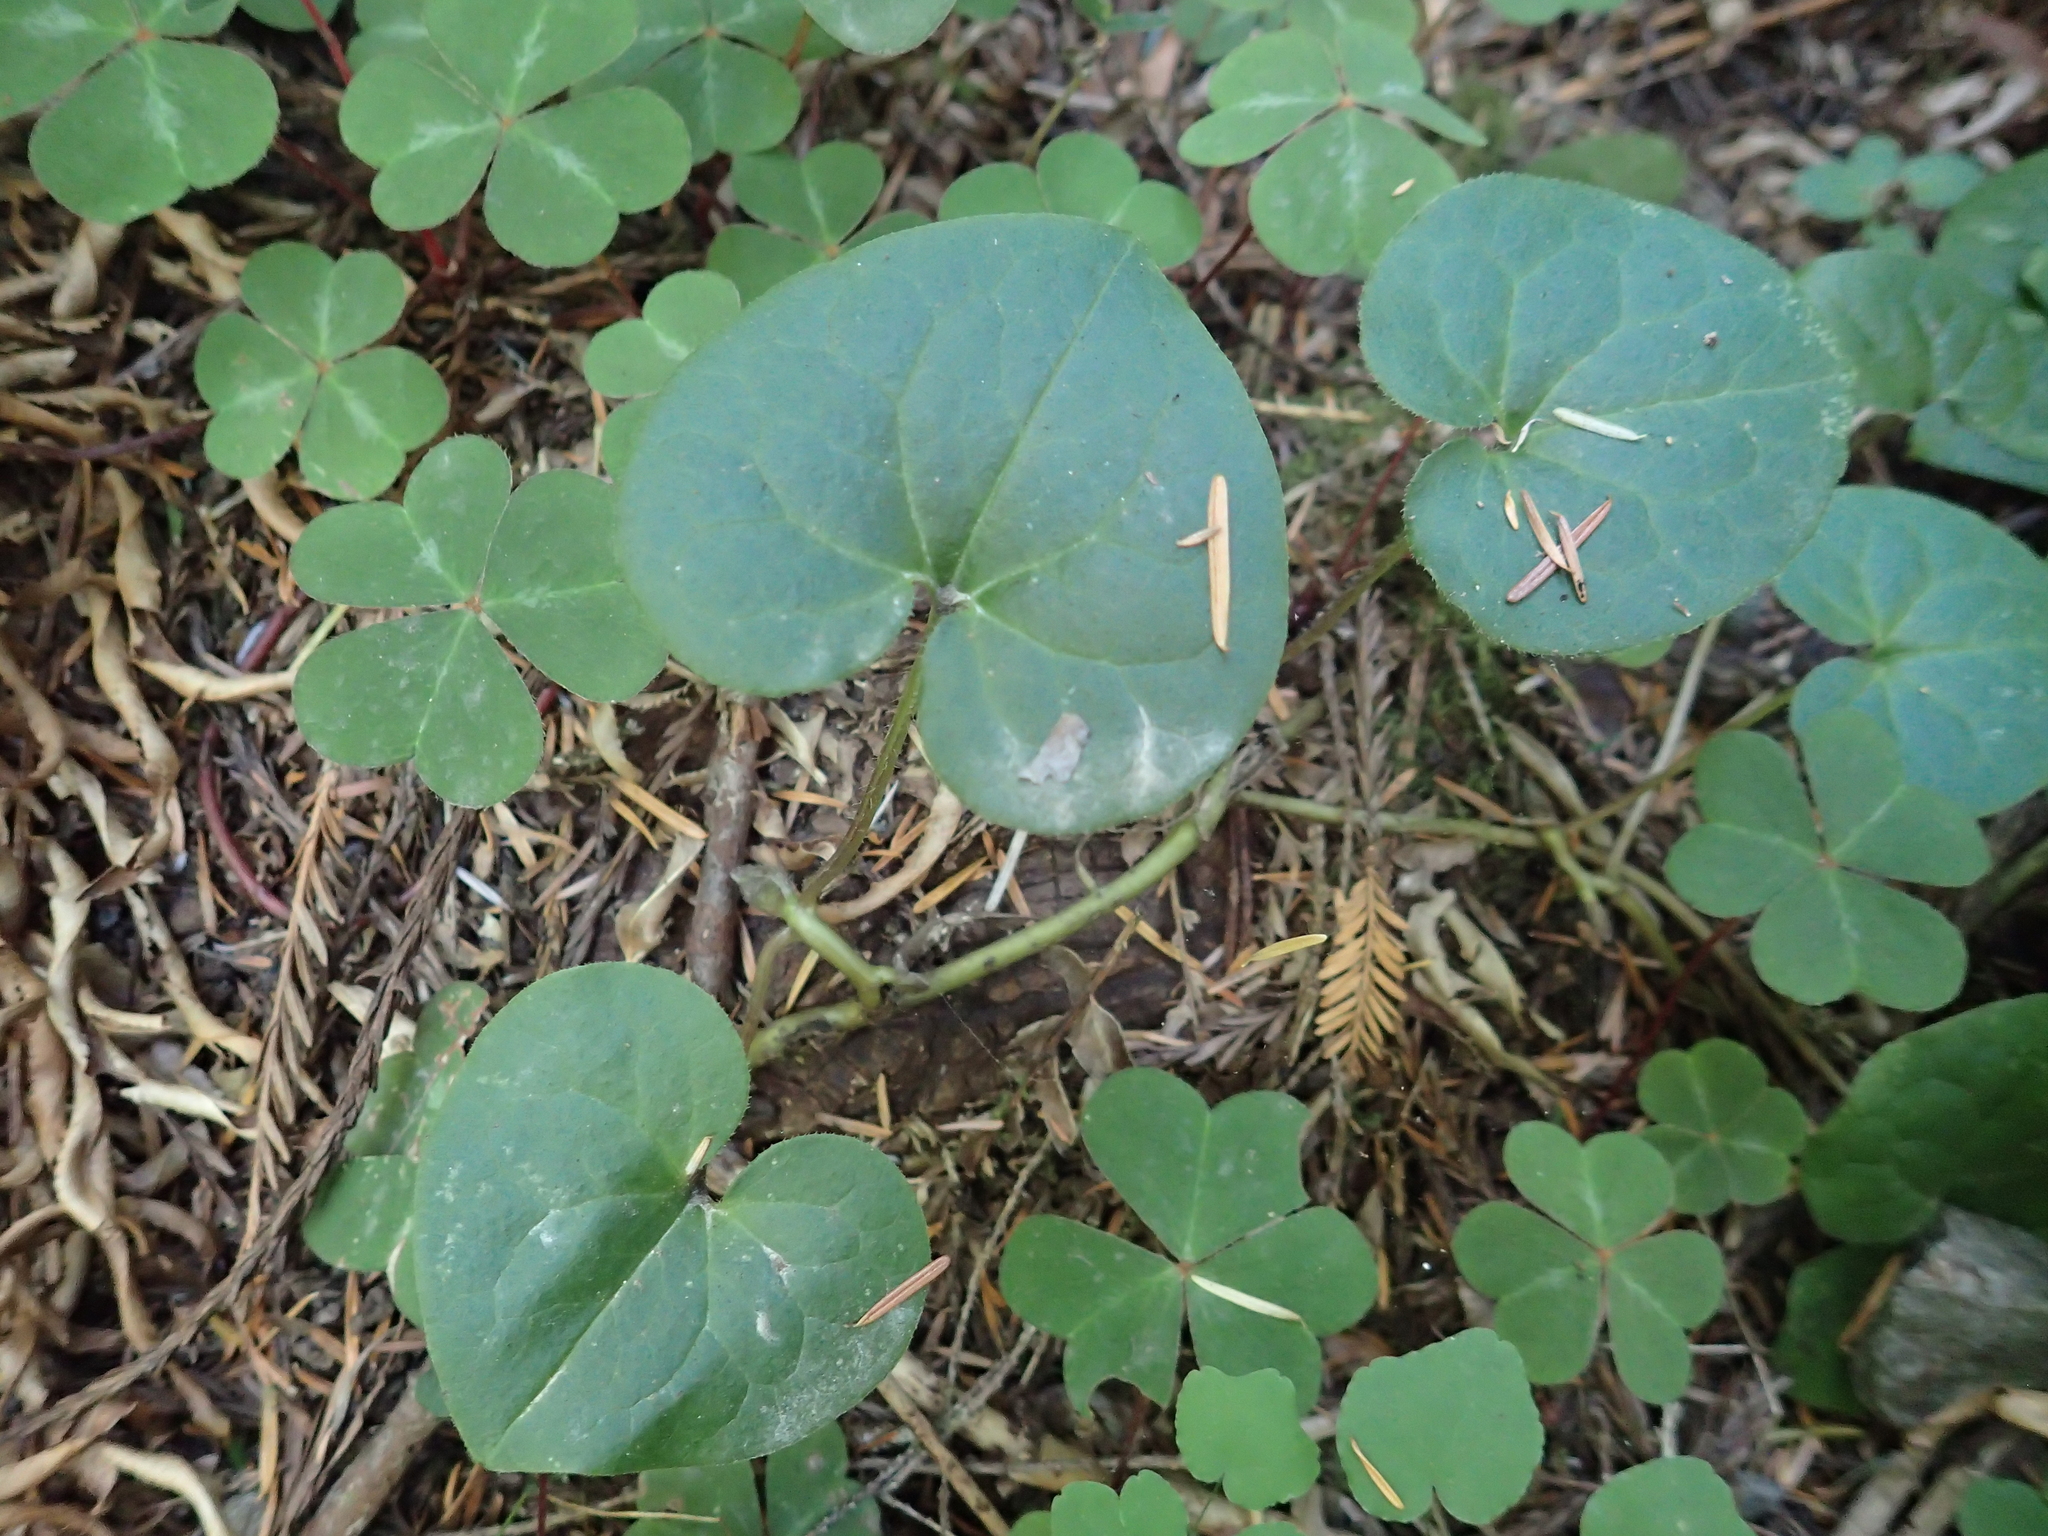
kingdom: Plantae
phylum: Tracheophyta
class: Magnoliopsida
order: Piperales
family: Aristolochiaceae
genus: Asarum
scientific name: Asarum caudatum
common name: Wild ginger
